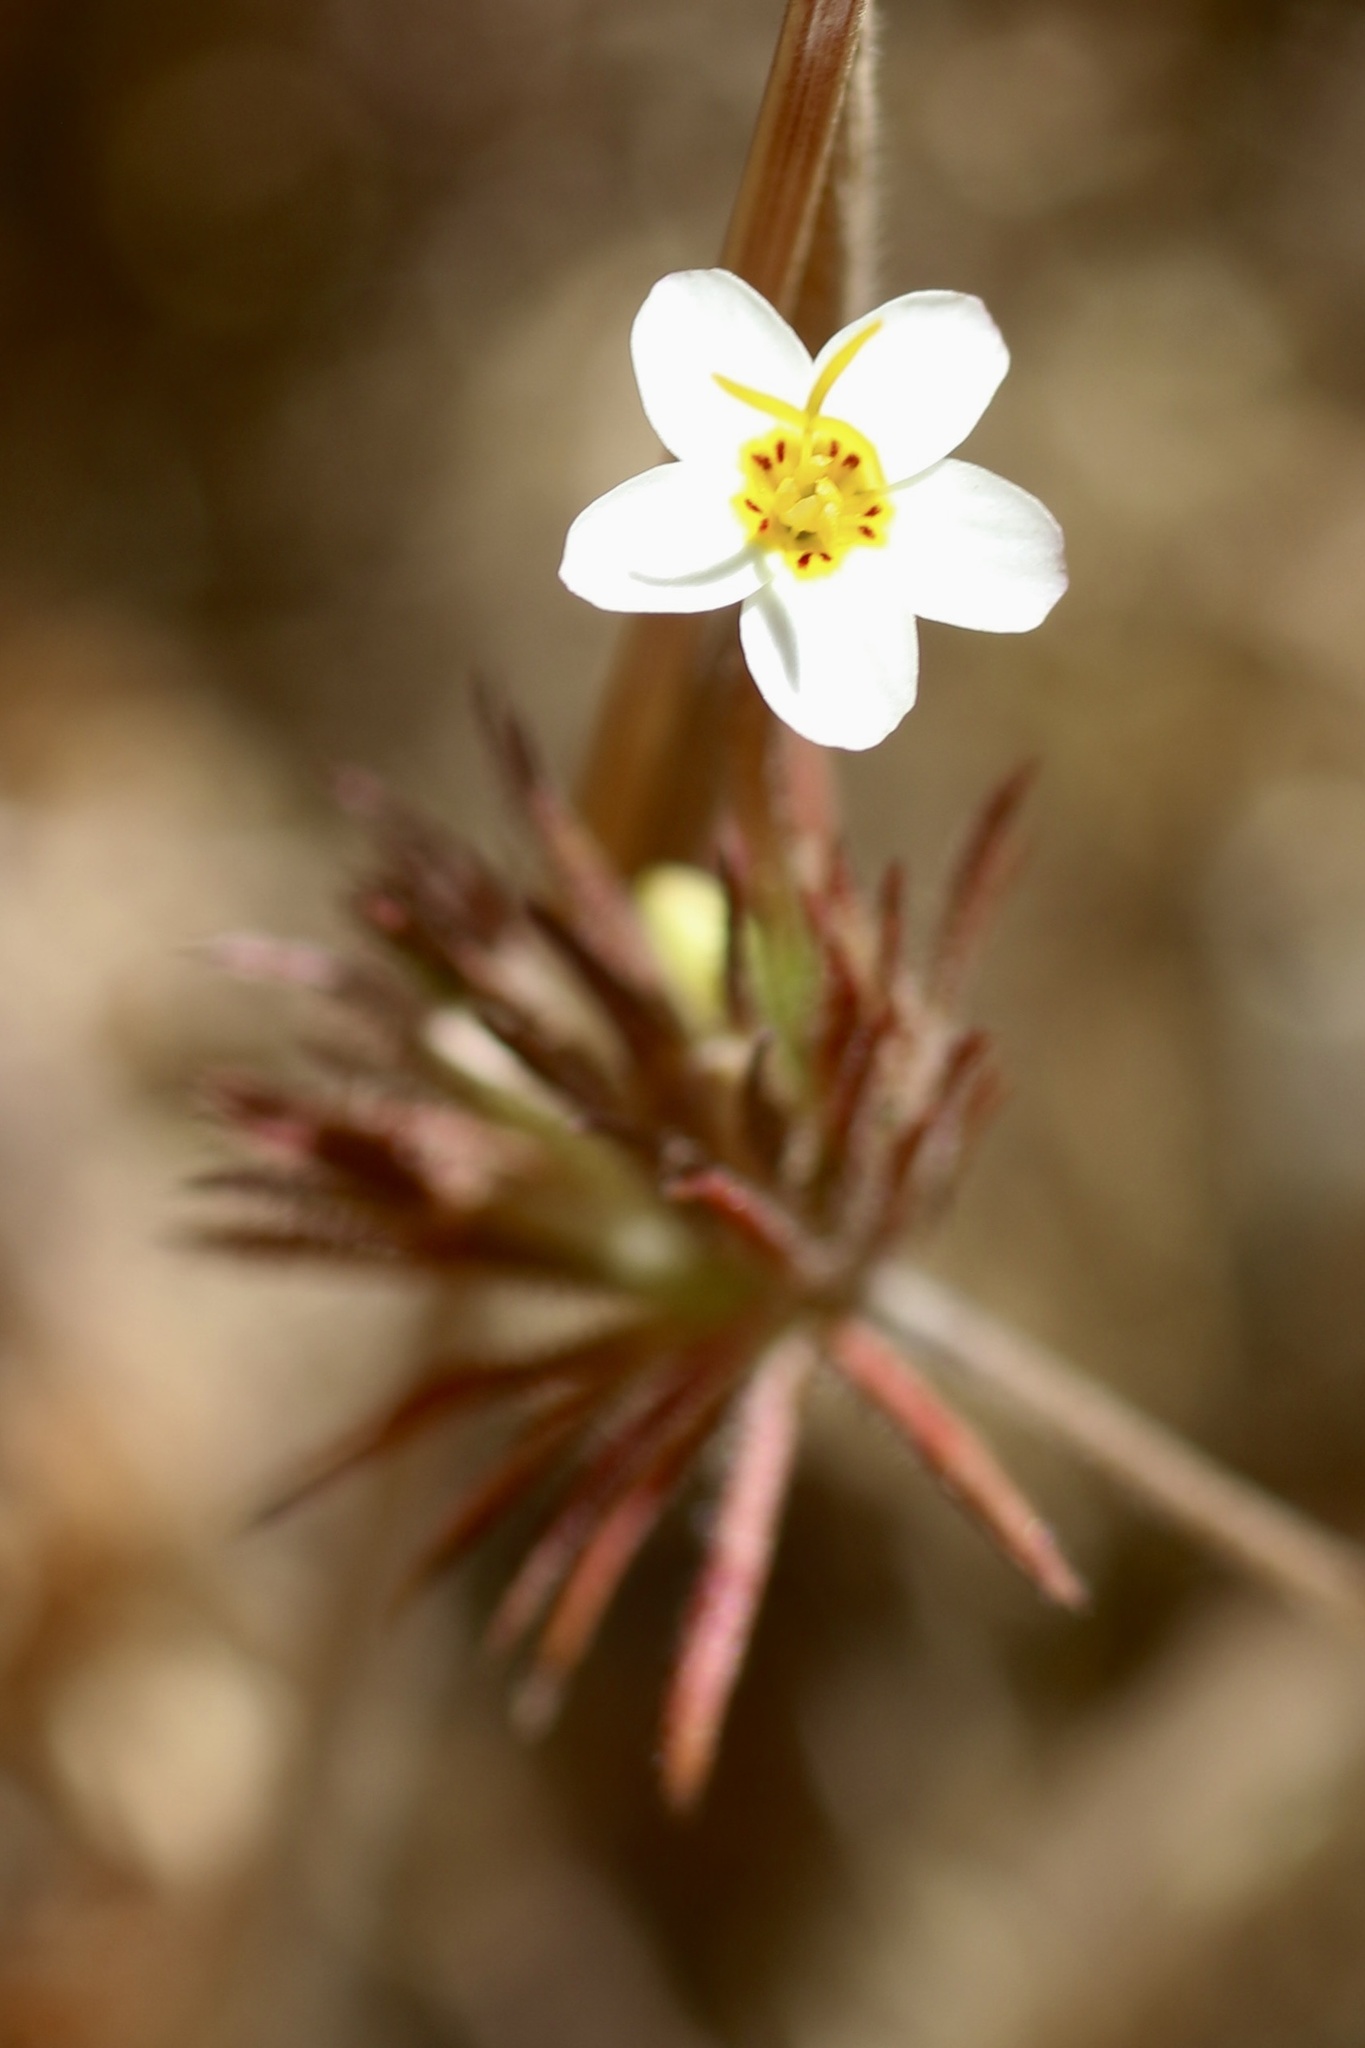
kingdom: Plantae
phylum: Tracheophyta
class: Magnoliopsida
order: Ericales
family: Polemoniaceae
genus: Leptosiphon
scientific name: Leptosiphon parviflorus
